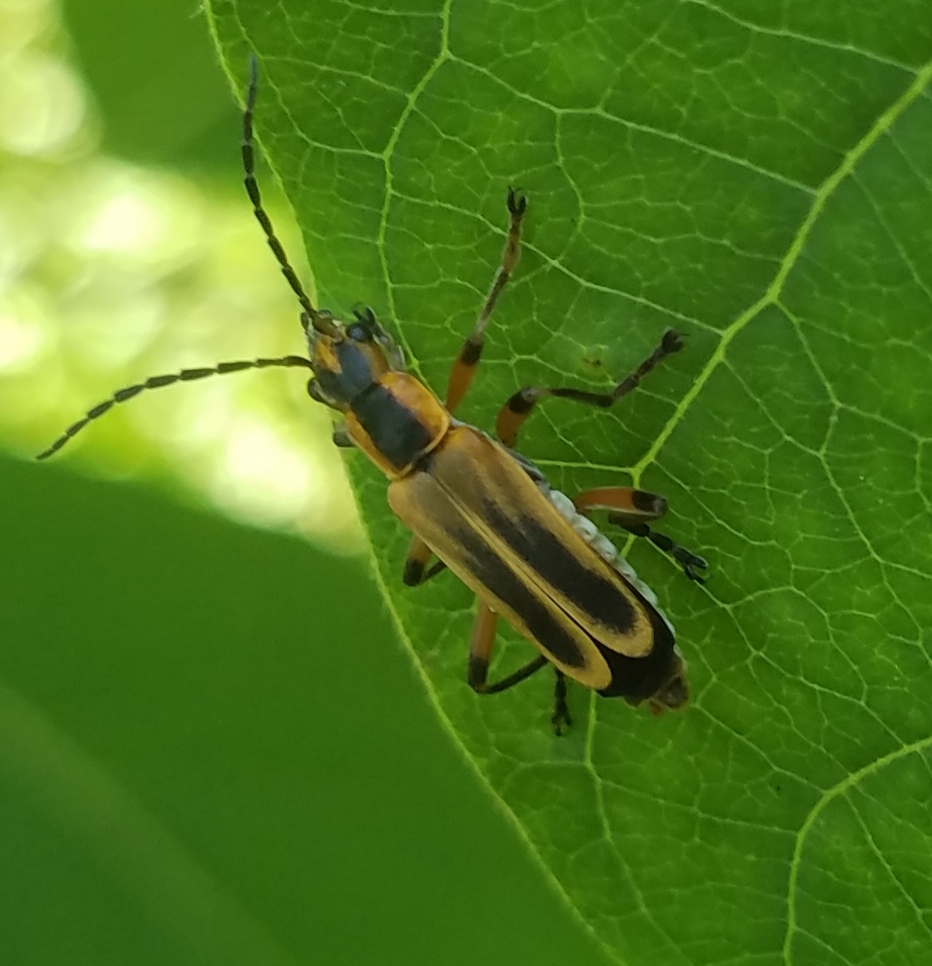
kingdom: Animalia
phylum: Arthropoda
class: Insecta
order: Coleoptera
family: Cantharidae
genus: Chauliognathus
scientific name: Chauliognathus marginatus
